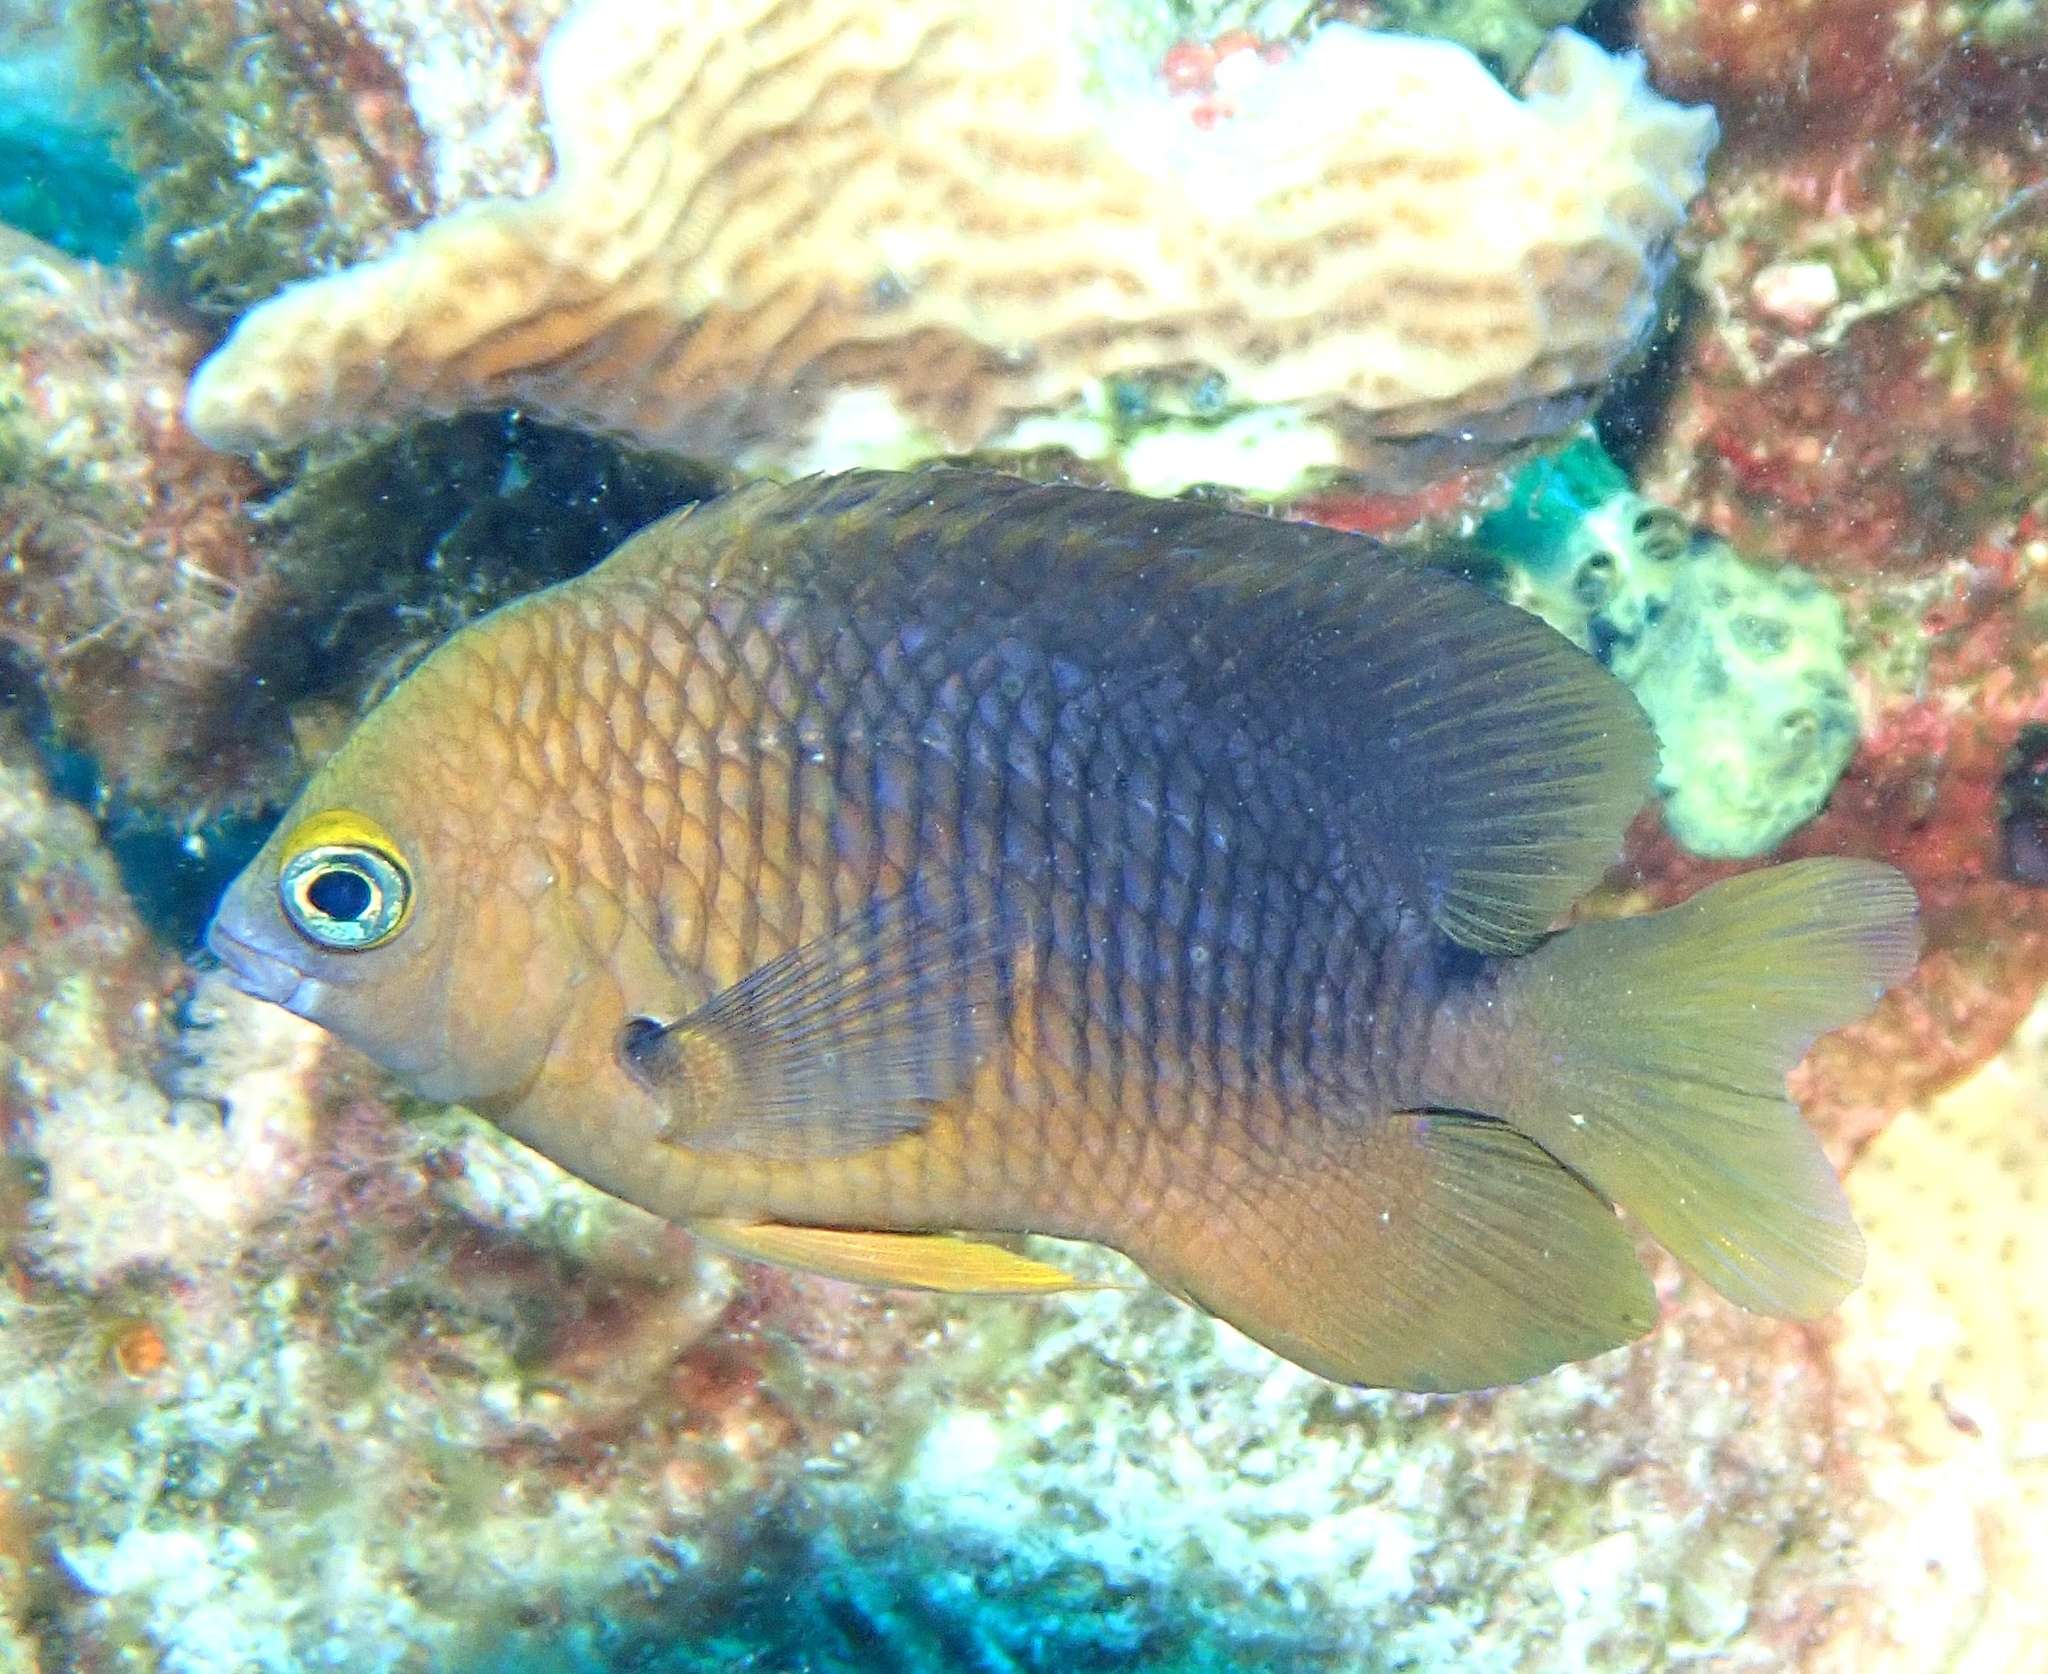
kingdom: Animalia
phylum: Chordata
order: Perciformes
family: Pomacentridae
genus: Stegastes
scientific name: Stegastes planifrons
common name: Threespot damselfish
